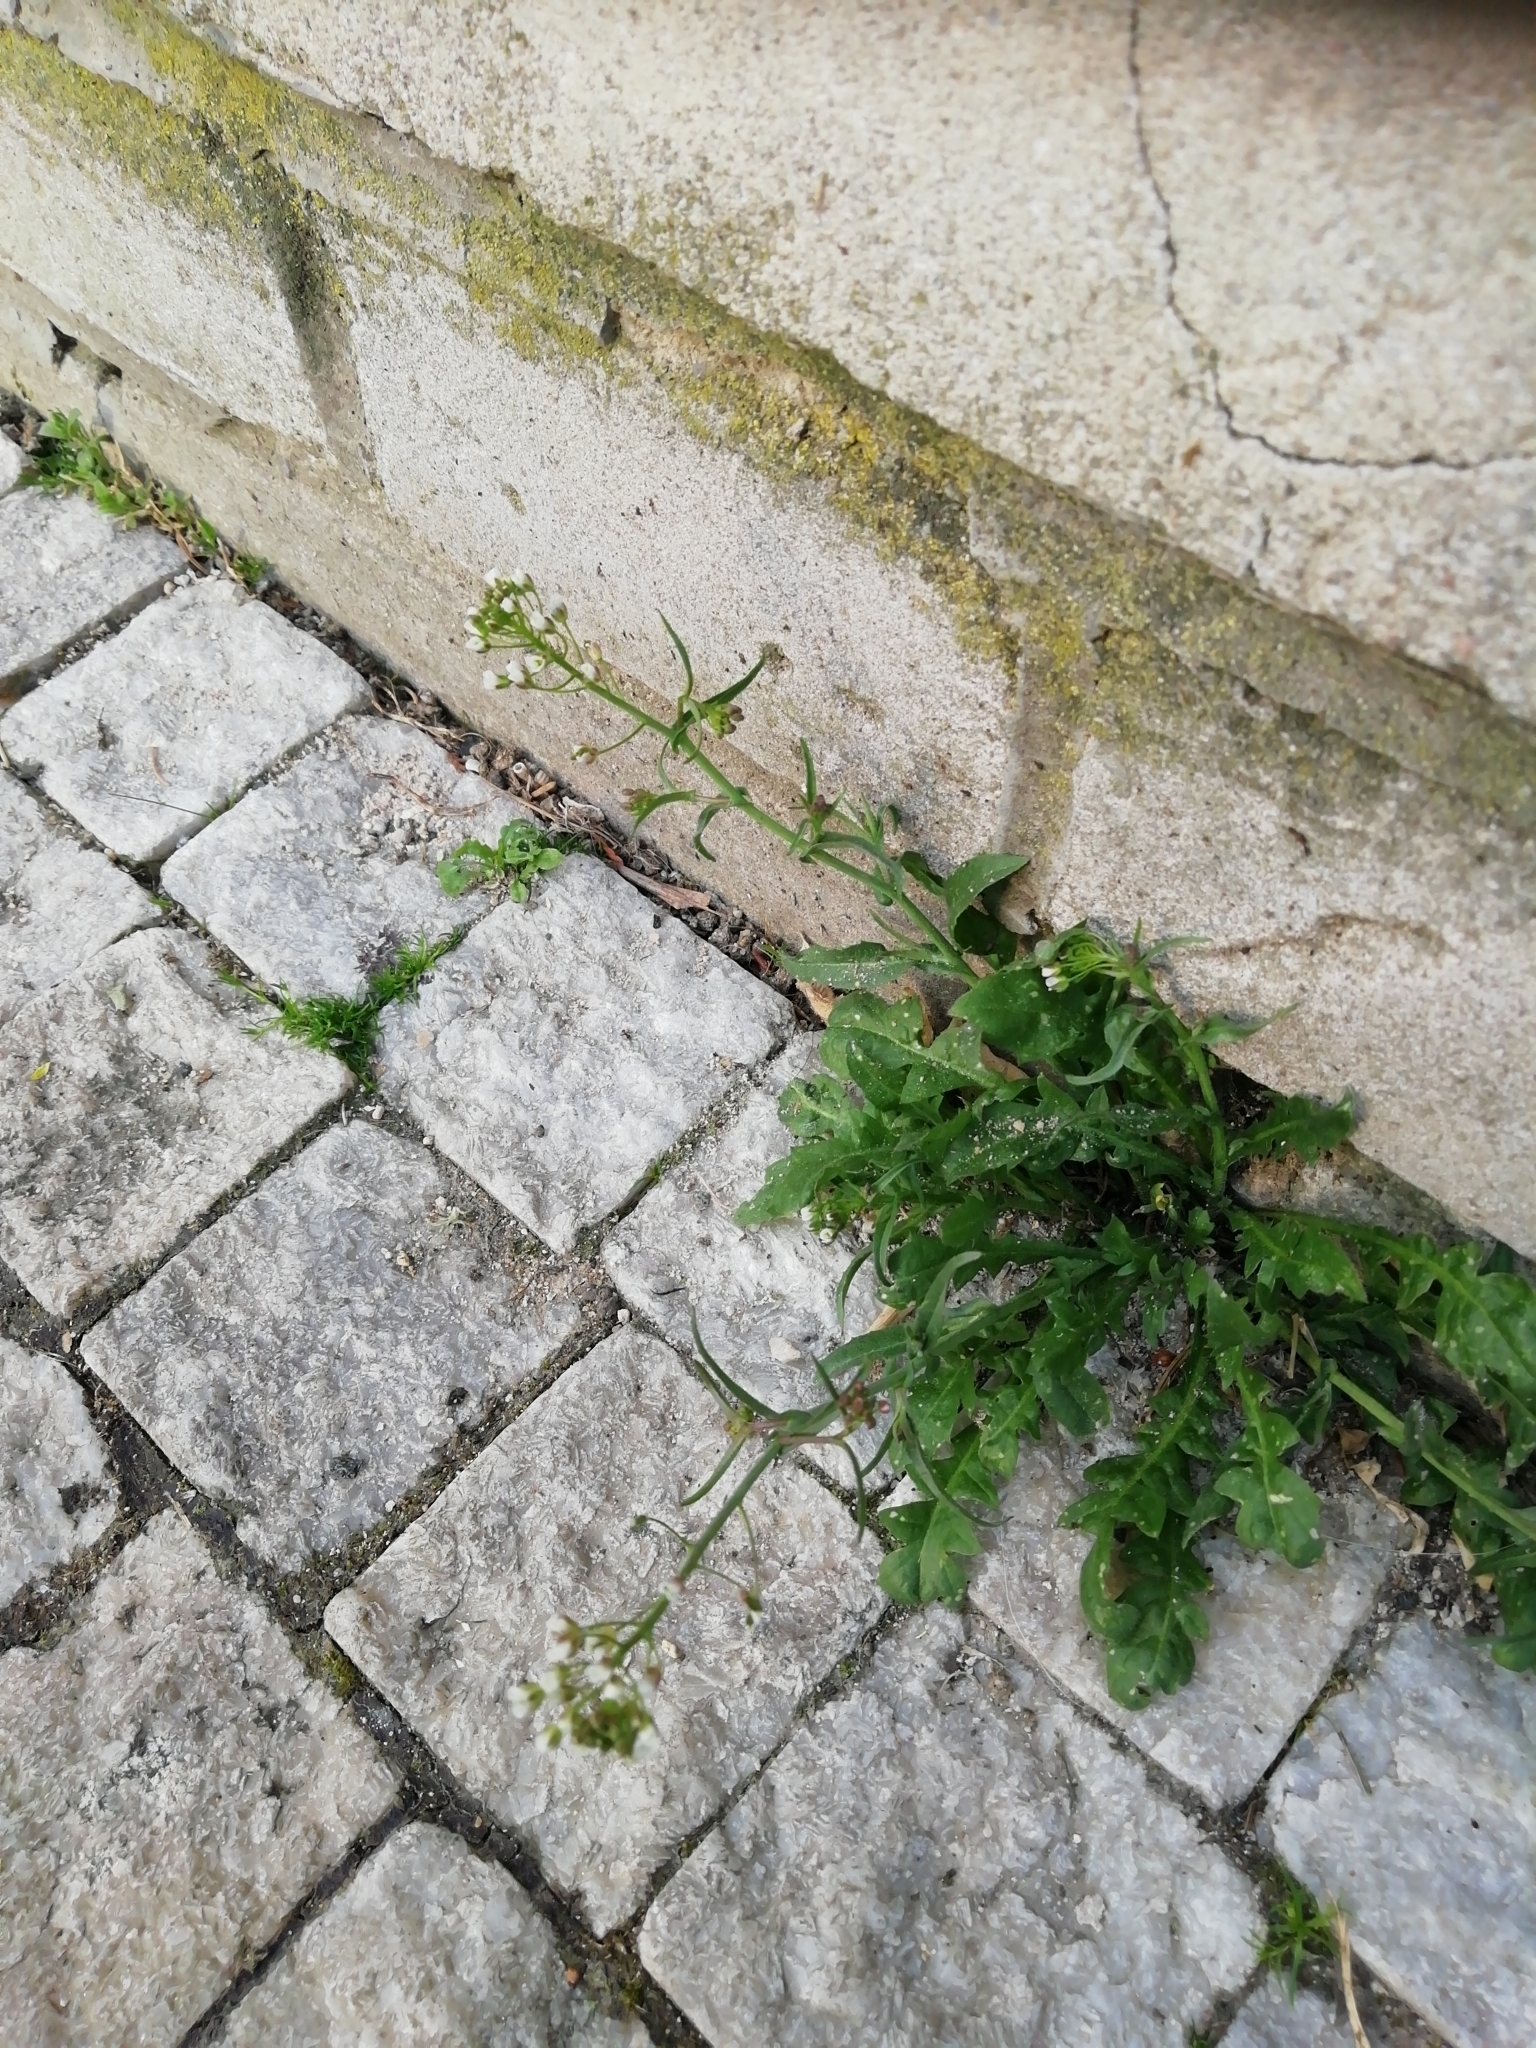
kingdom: Plantae
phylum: Tracheophyta
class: Magnoliopsida
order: Brassicales
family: Brassicaceae
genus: Capsella
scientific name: Capsella bursa-pastoris
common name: Shepherd's purse
